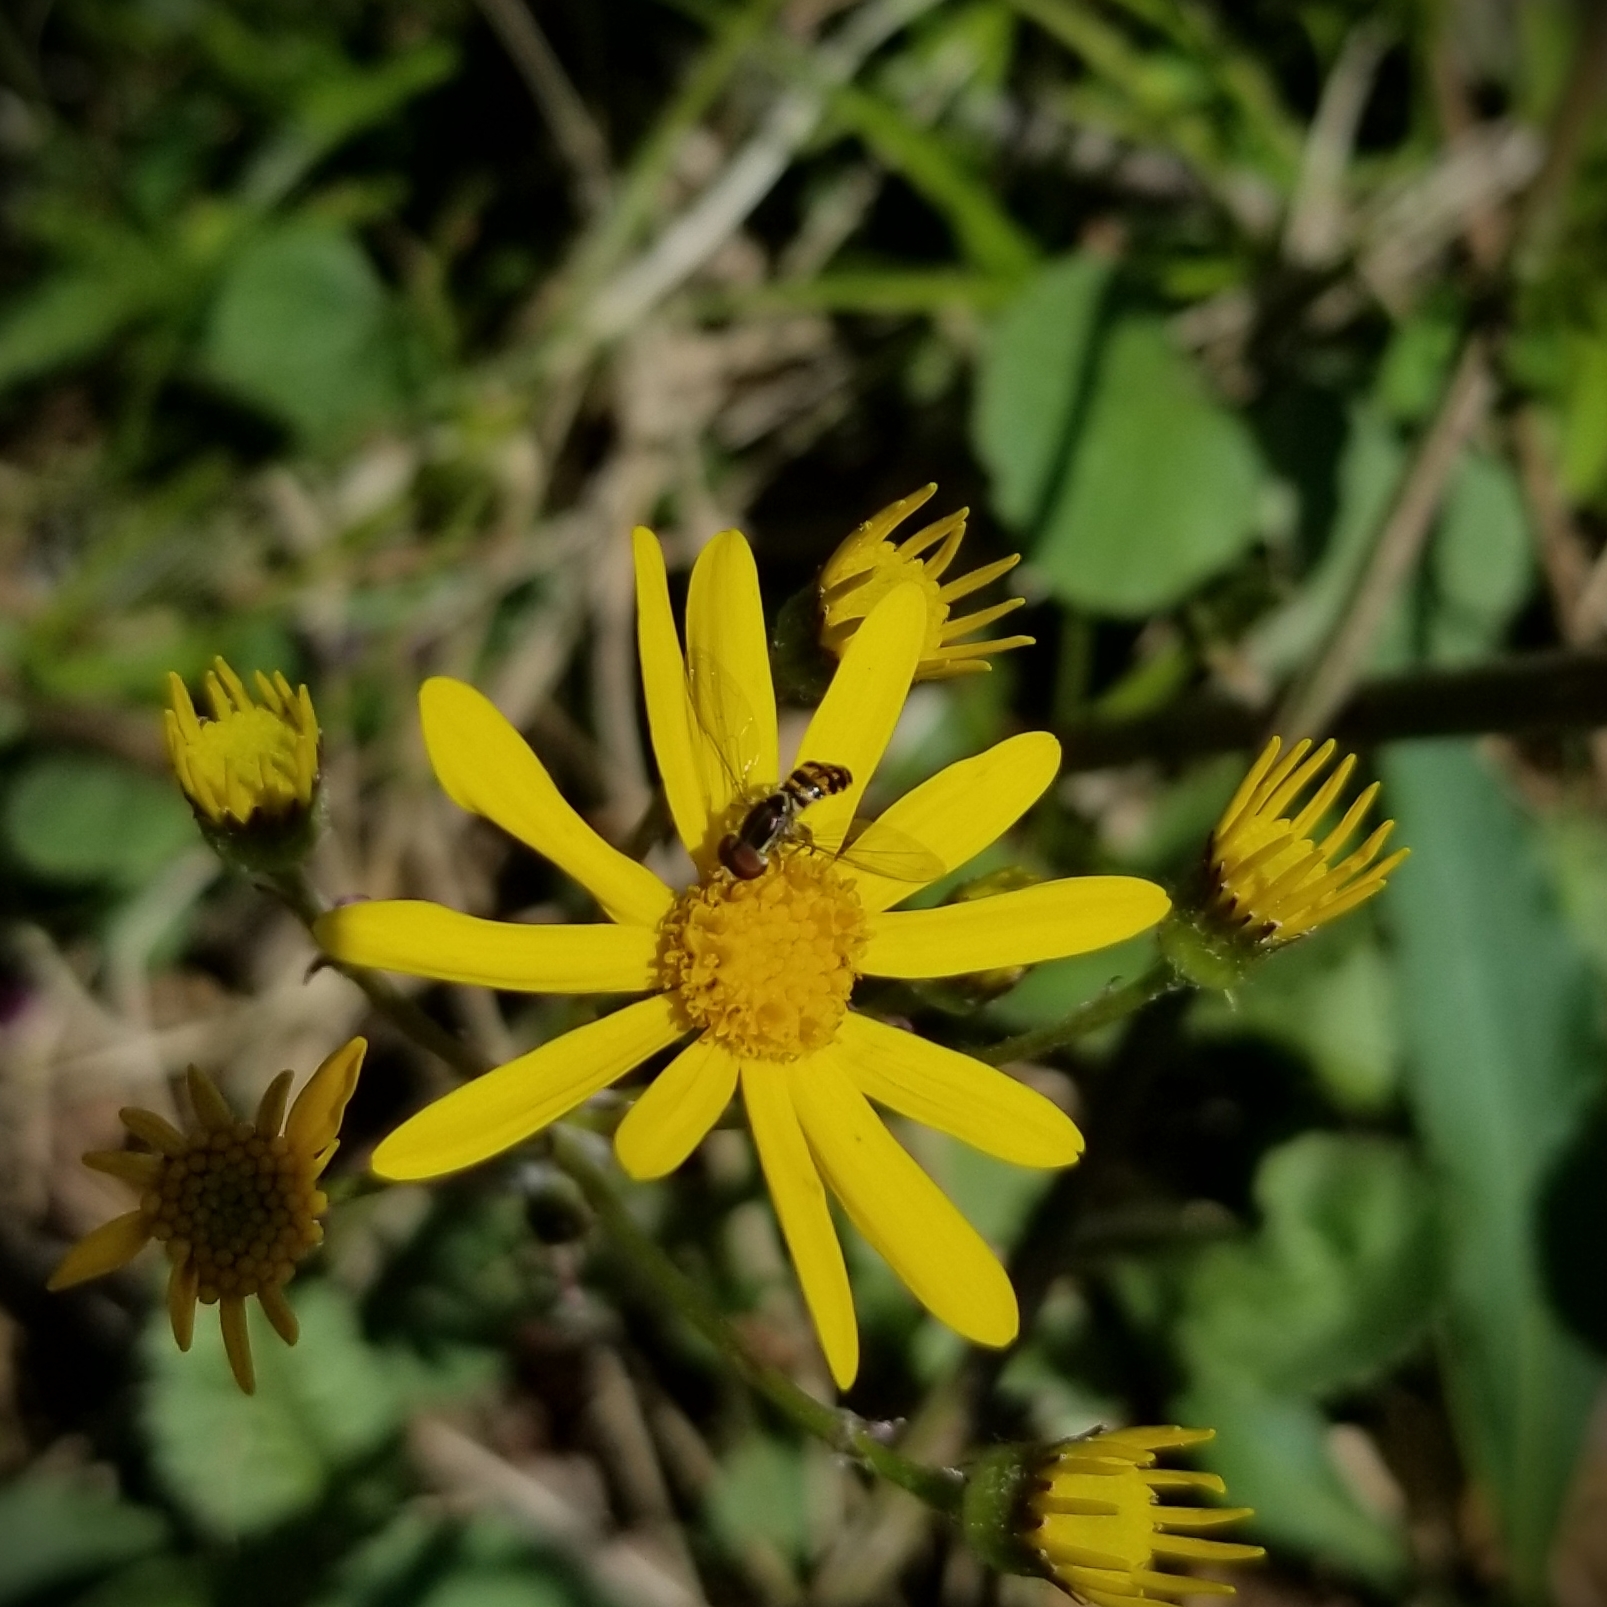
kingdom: Animalia
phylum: Arthropoda
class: Insecta
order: Diptera
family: Syrphidae
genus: Toxomerus
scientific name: Toxomerus geminatus
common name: Eastern calligrapher
